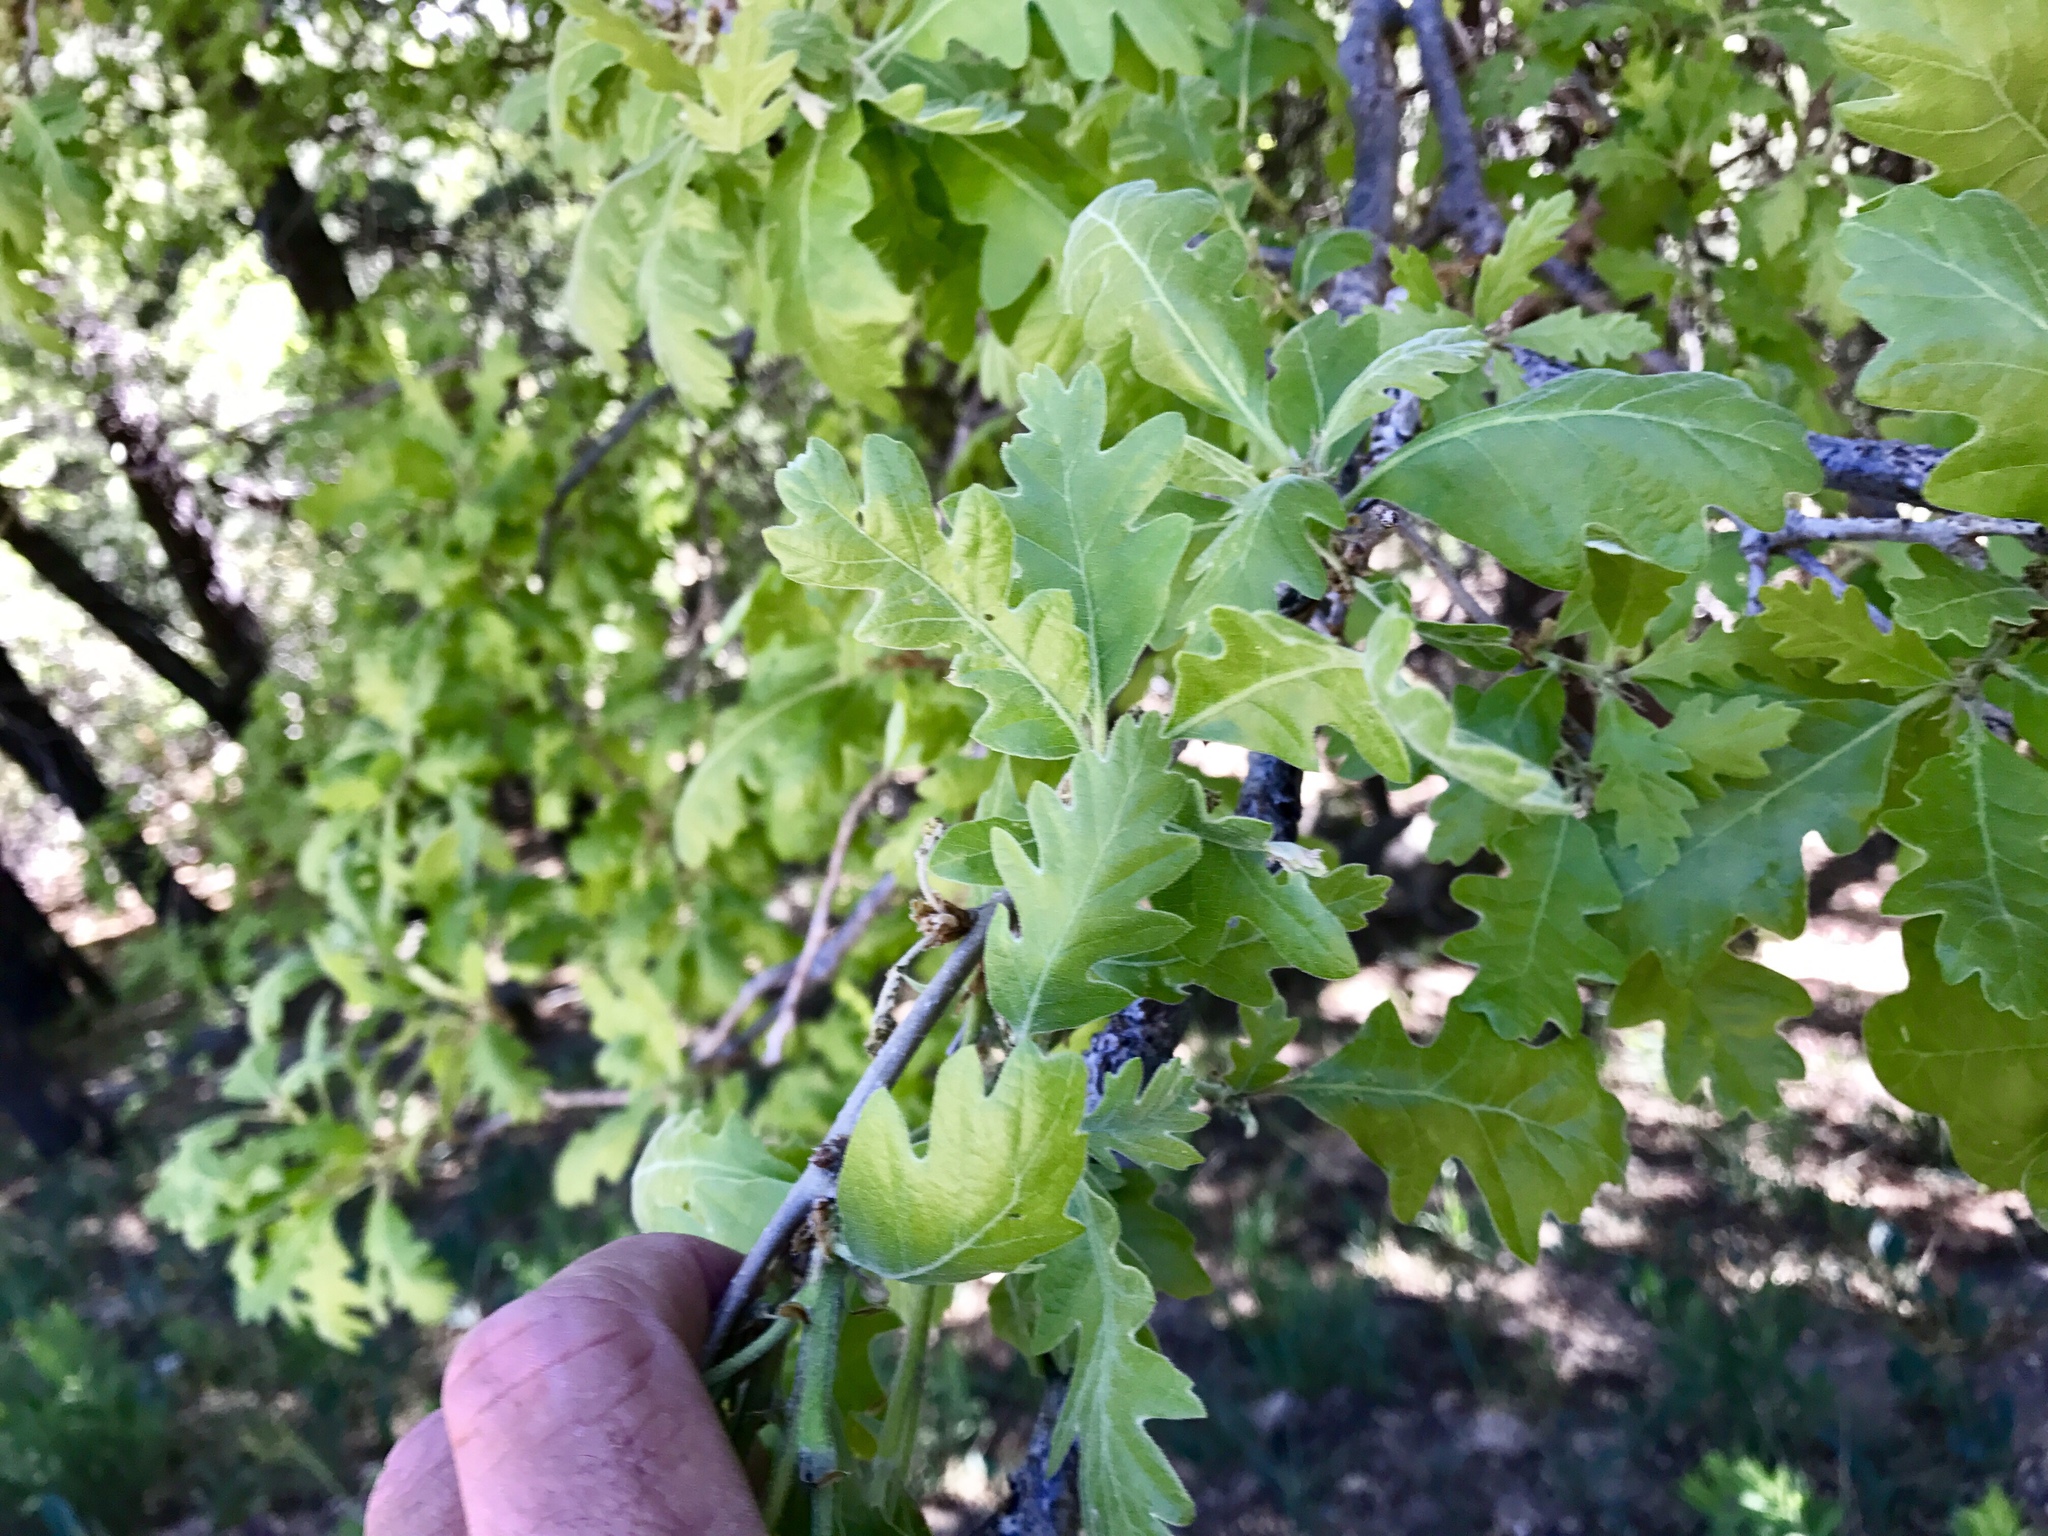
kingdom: Plantae
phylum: Tracheophyta
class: Magnoliopsida
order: Fagales
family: Fagaceae
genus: Quercus
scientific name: Quercus gambelii
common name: Gambel oak
